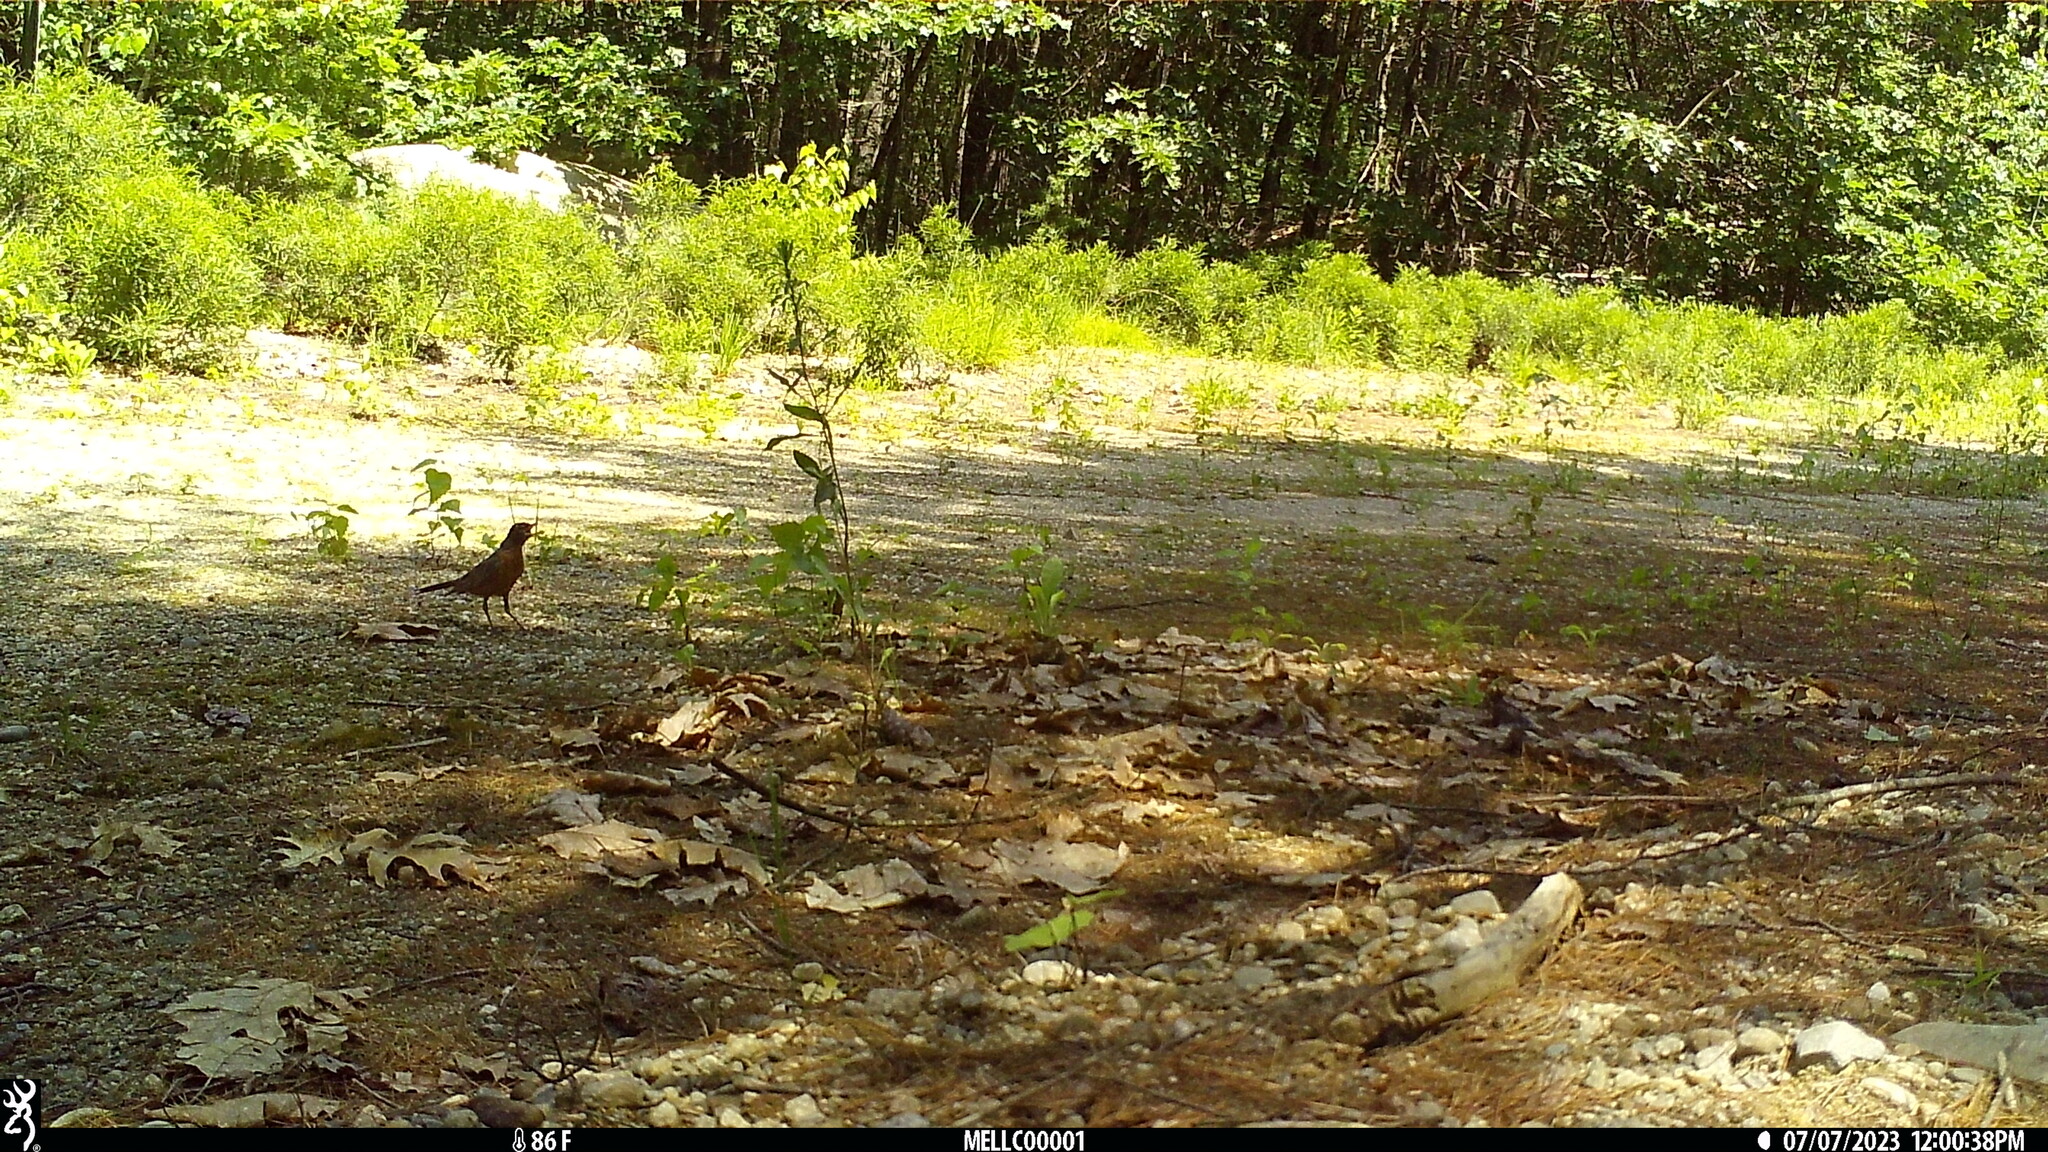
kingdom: Animalia
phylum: Chordata
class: Aves
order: Passeriformes
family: Turdidae
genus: Turdus
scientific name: Turdus migratorius
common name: American robin
